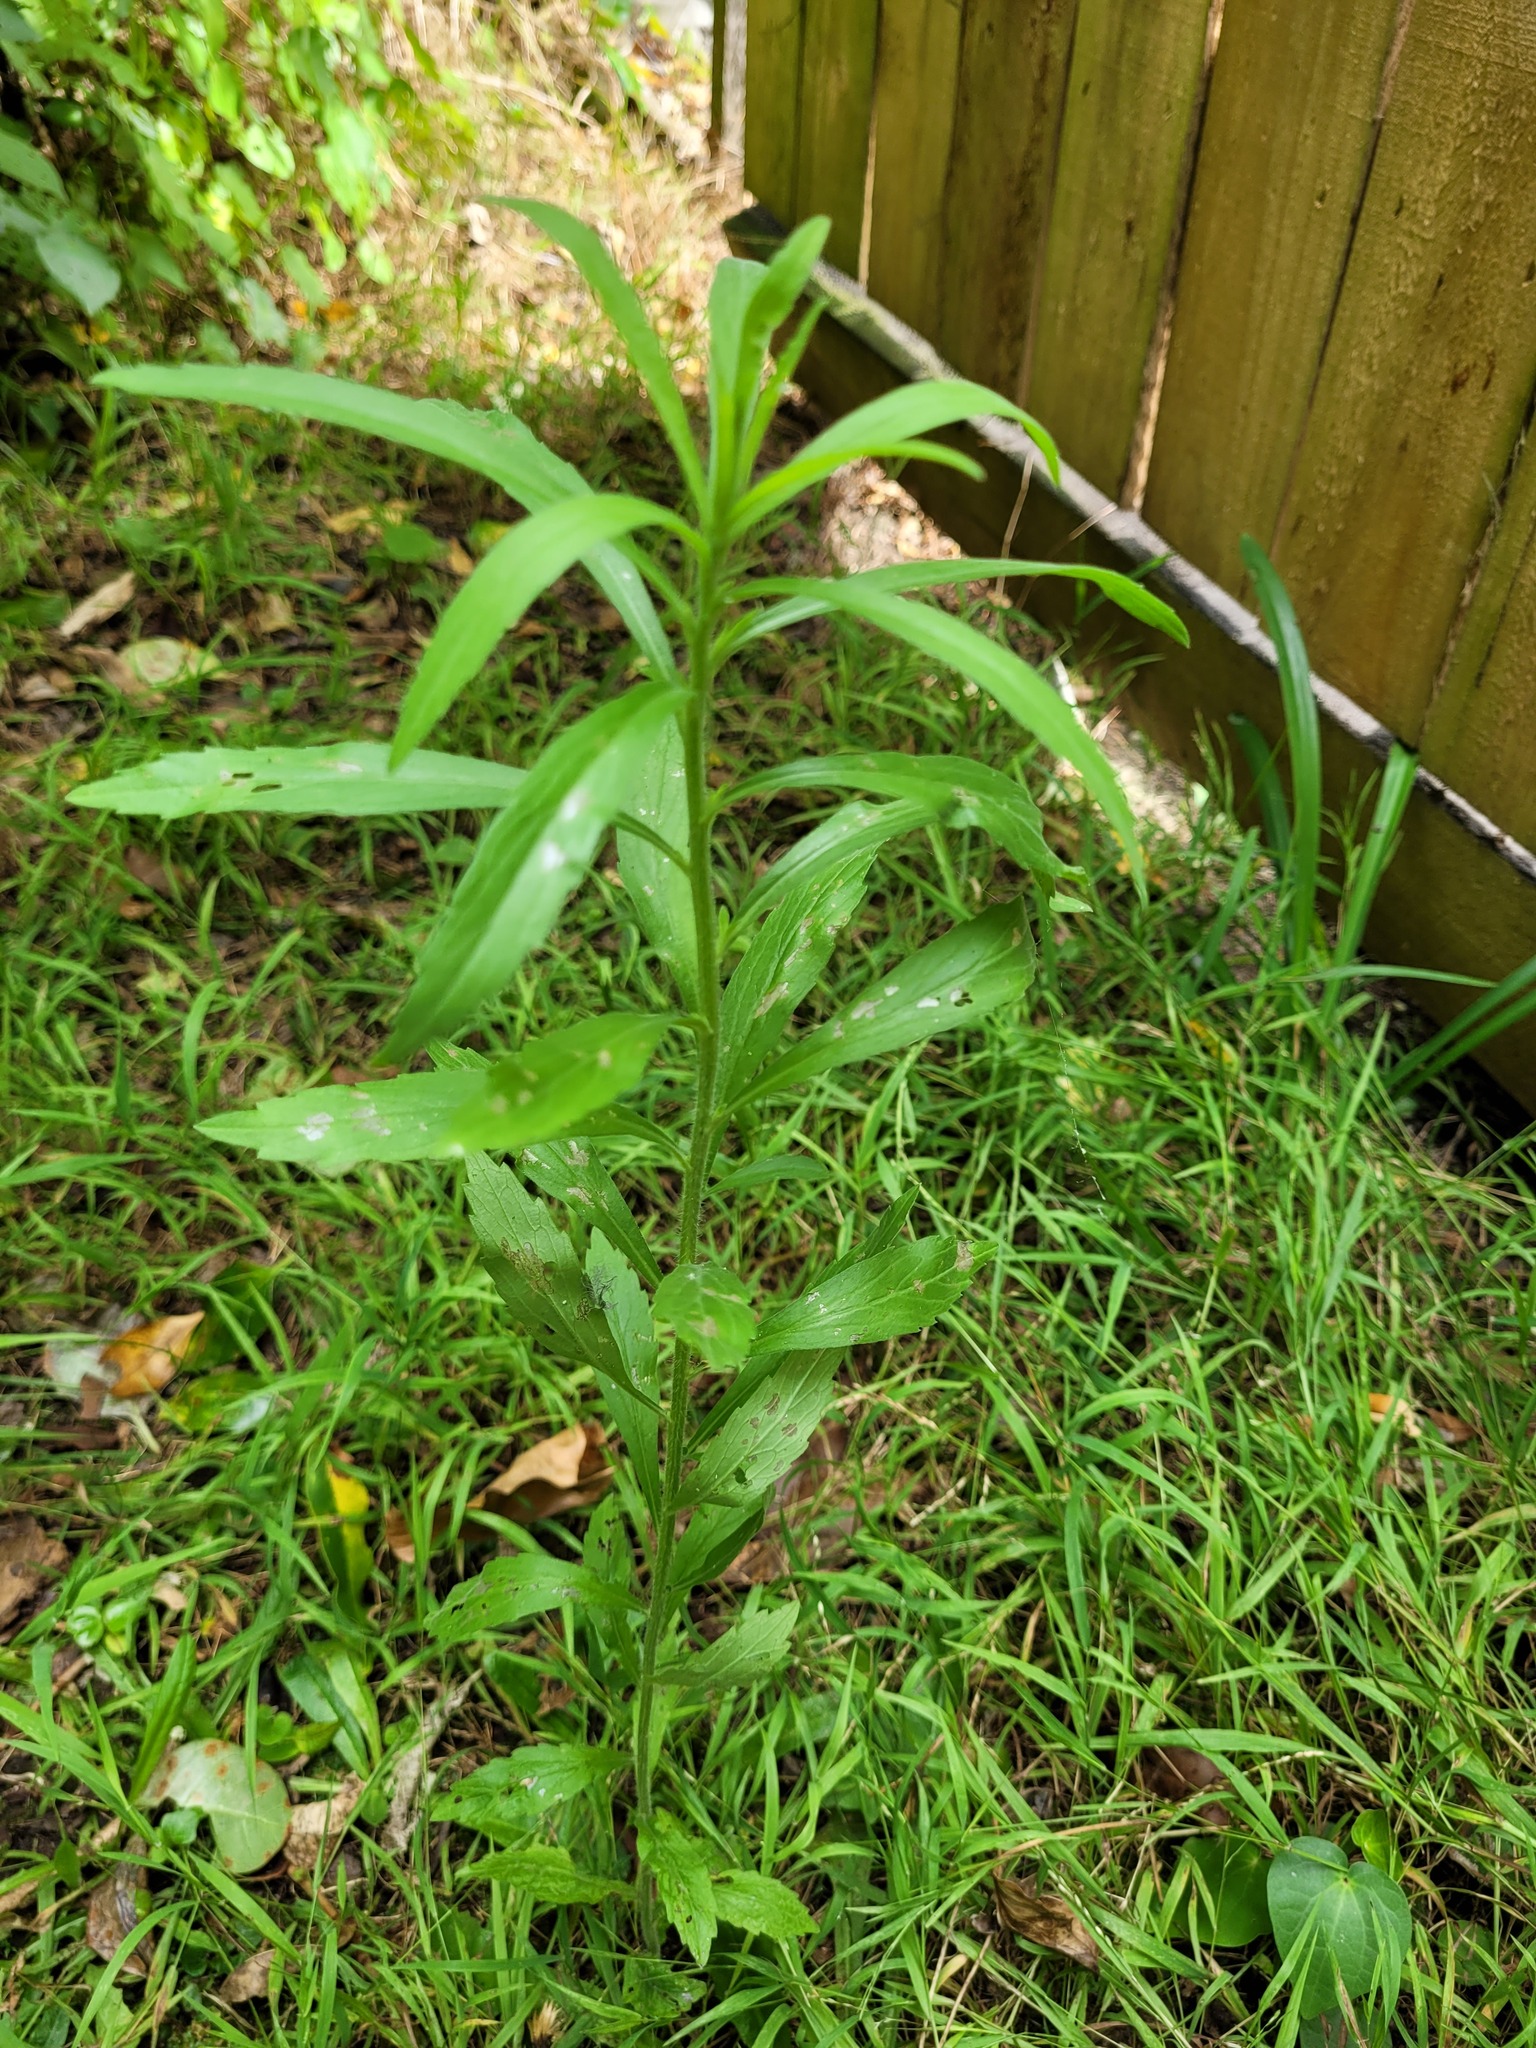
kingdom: Plantae
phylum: Tracheophyta
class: Magnoliopsida
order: Asterales
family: Asteraceae
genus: Erigeron
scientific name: Erigeron sumatrensis
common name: Daisy
